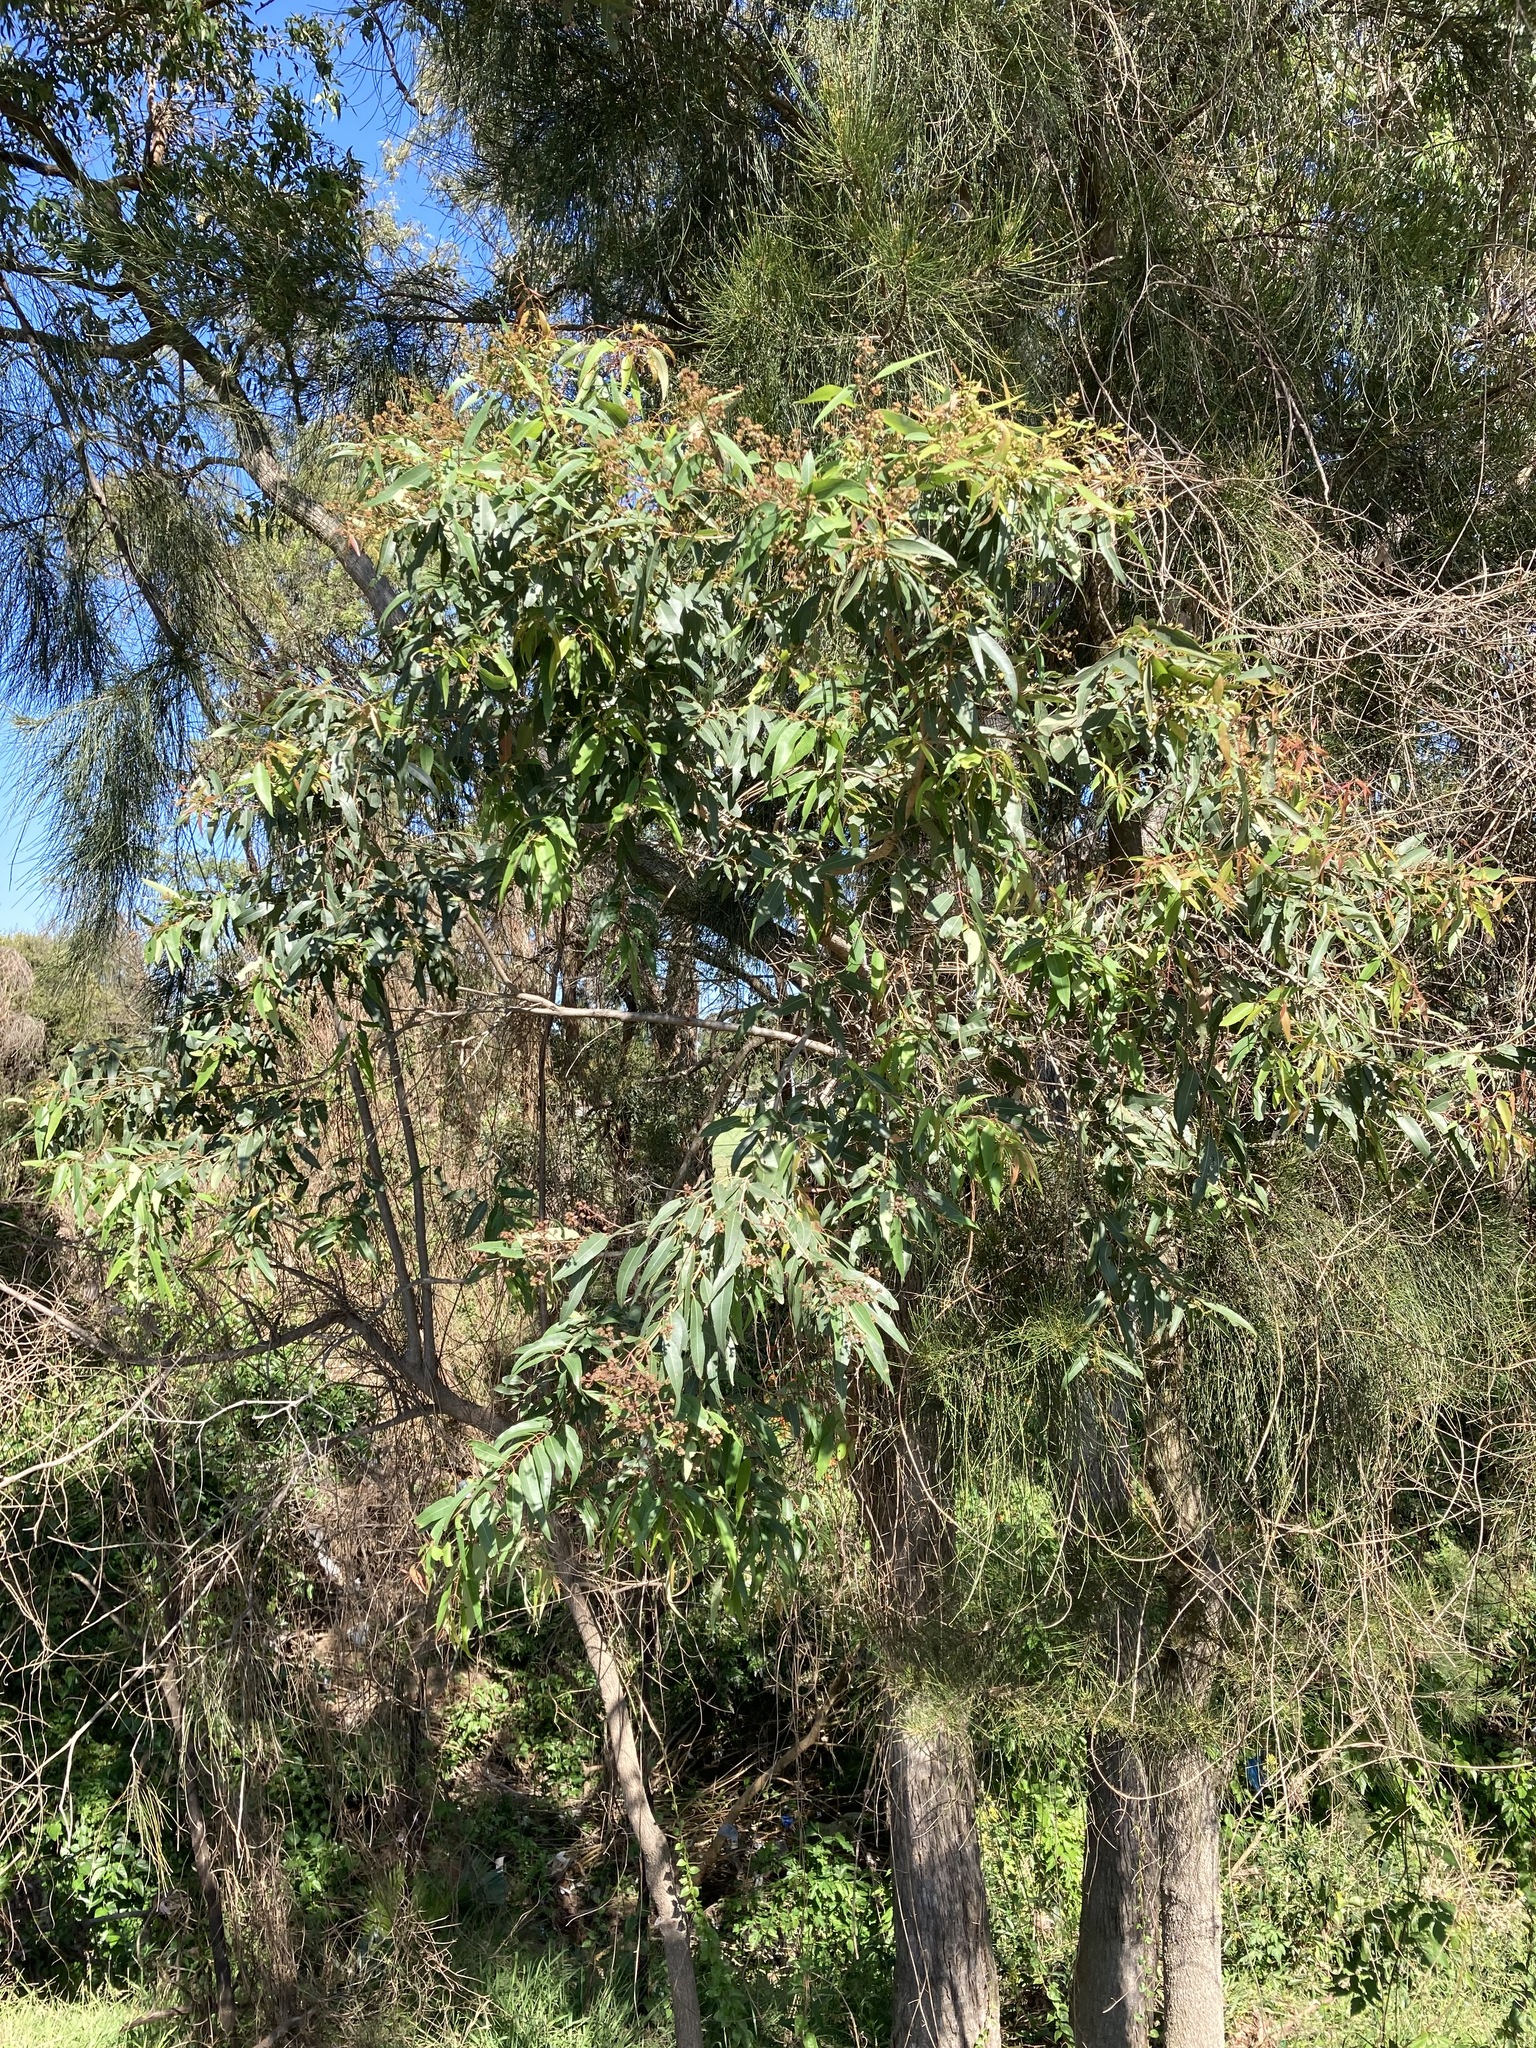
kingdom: Plantae
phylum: Tracheophyta
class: Magnoliopsida
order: Myrtales
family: Myrtaceae
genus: Angophora
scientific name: Angophora floribunda
